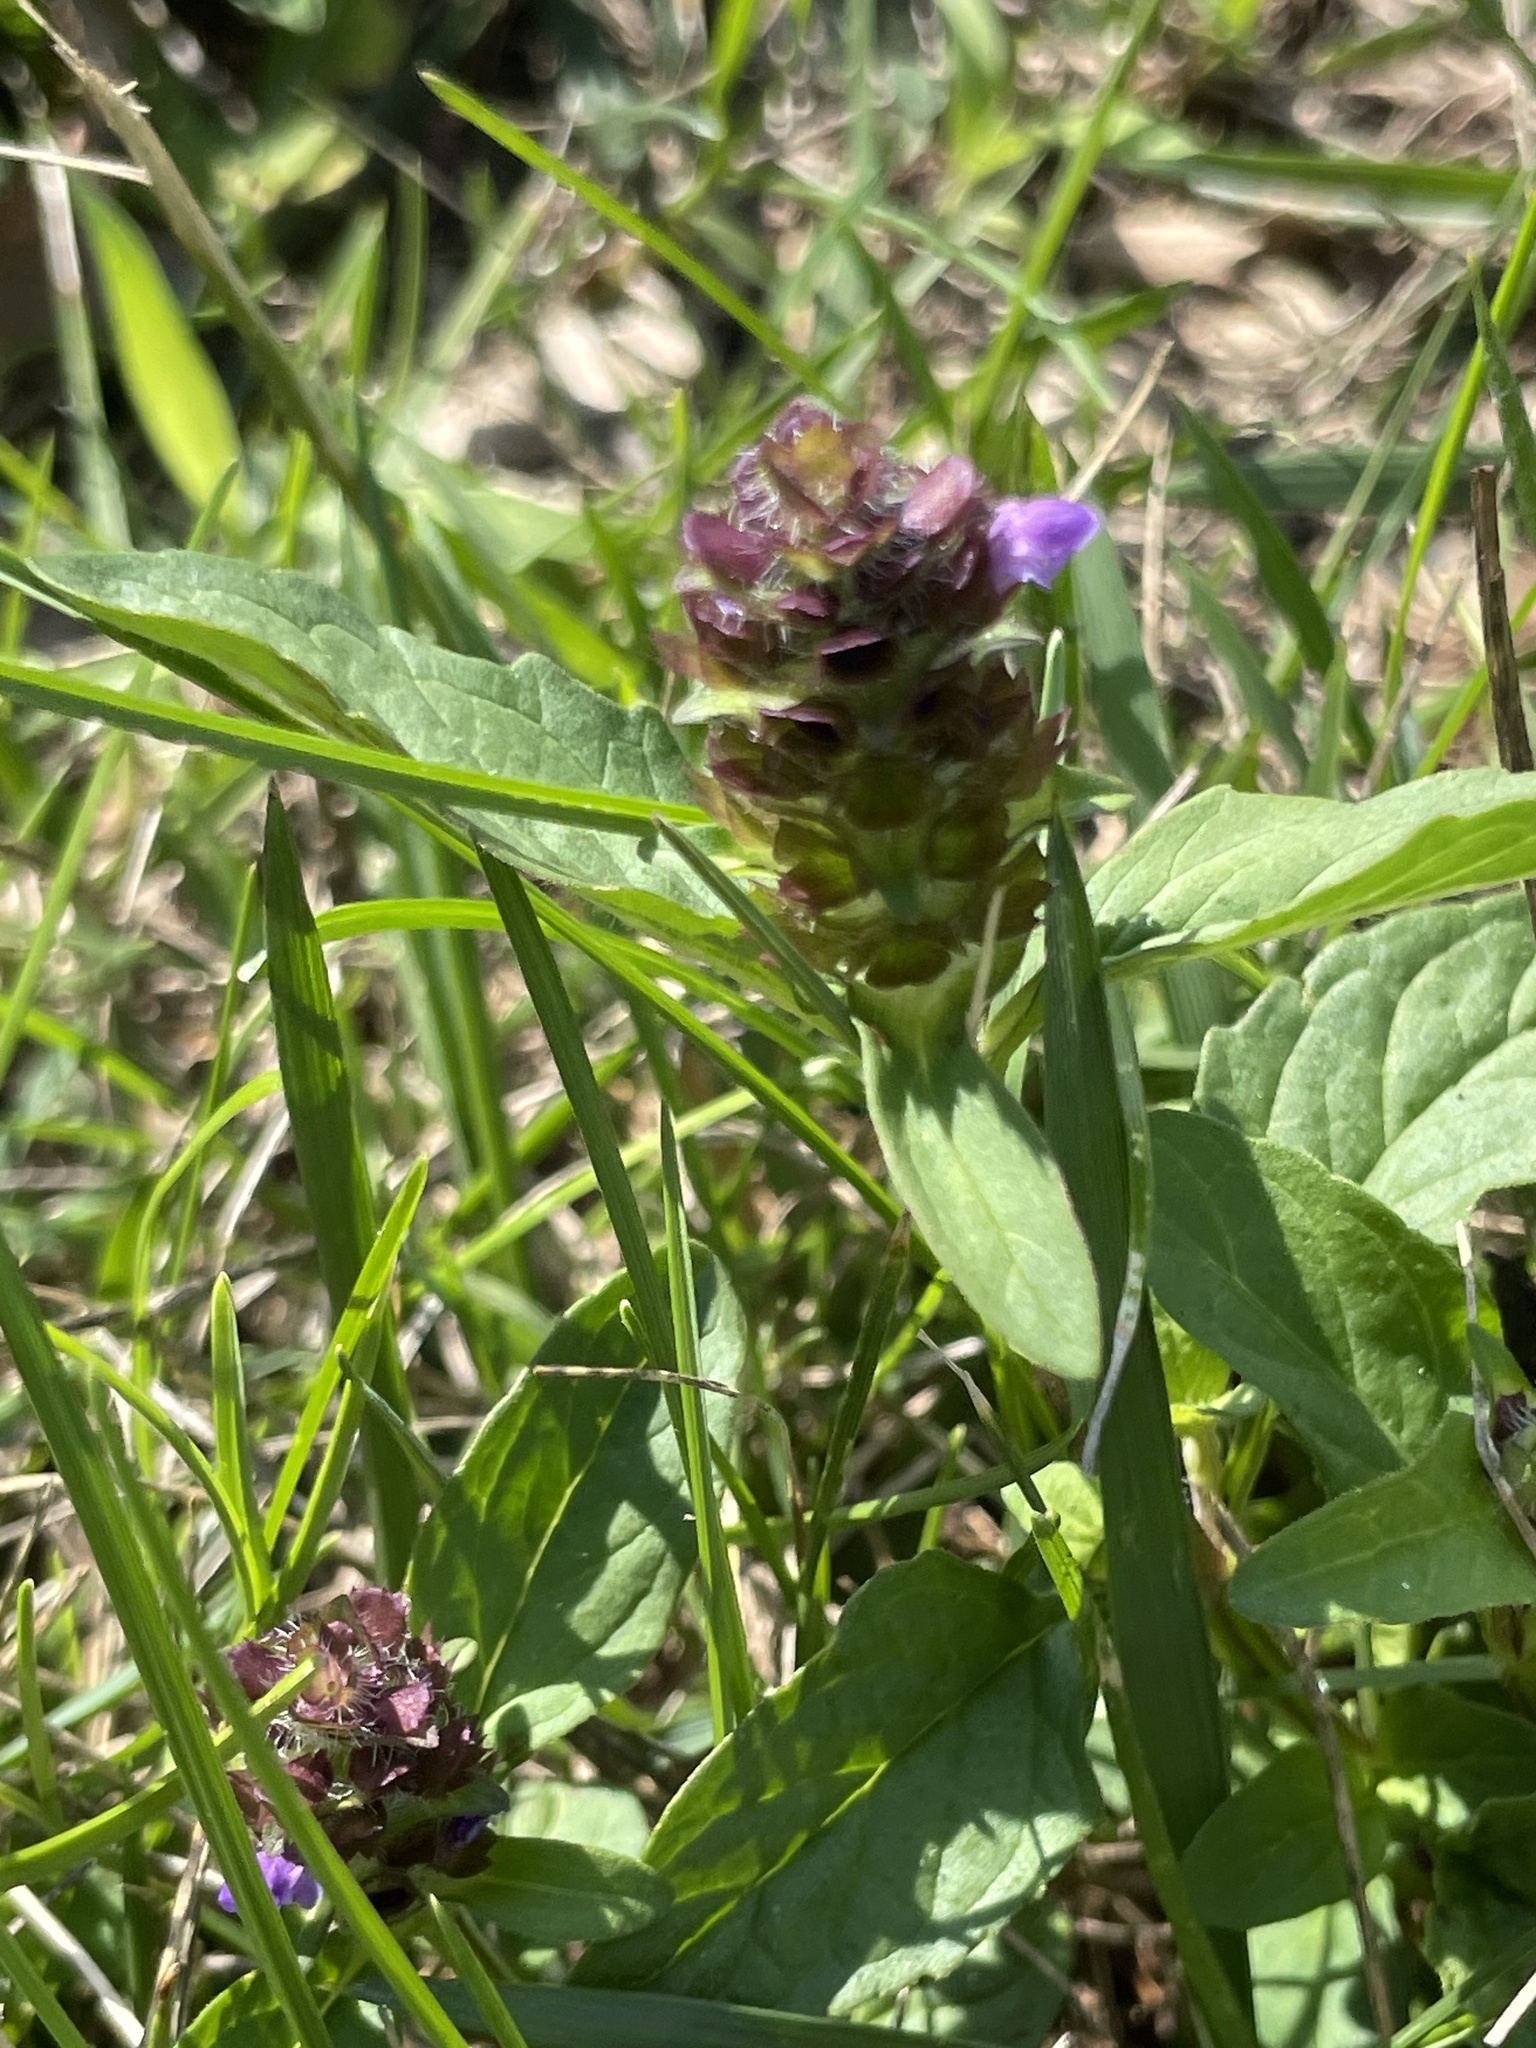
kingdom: Plantae
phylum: Tracheophyta
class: Magnoliopsida
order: Lamiales
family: Lamiaceae
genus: Prunella
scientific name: Prunella vulgaris
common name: Heal-all
